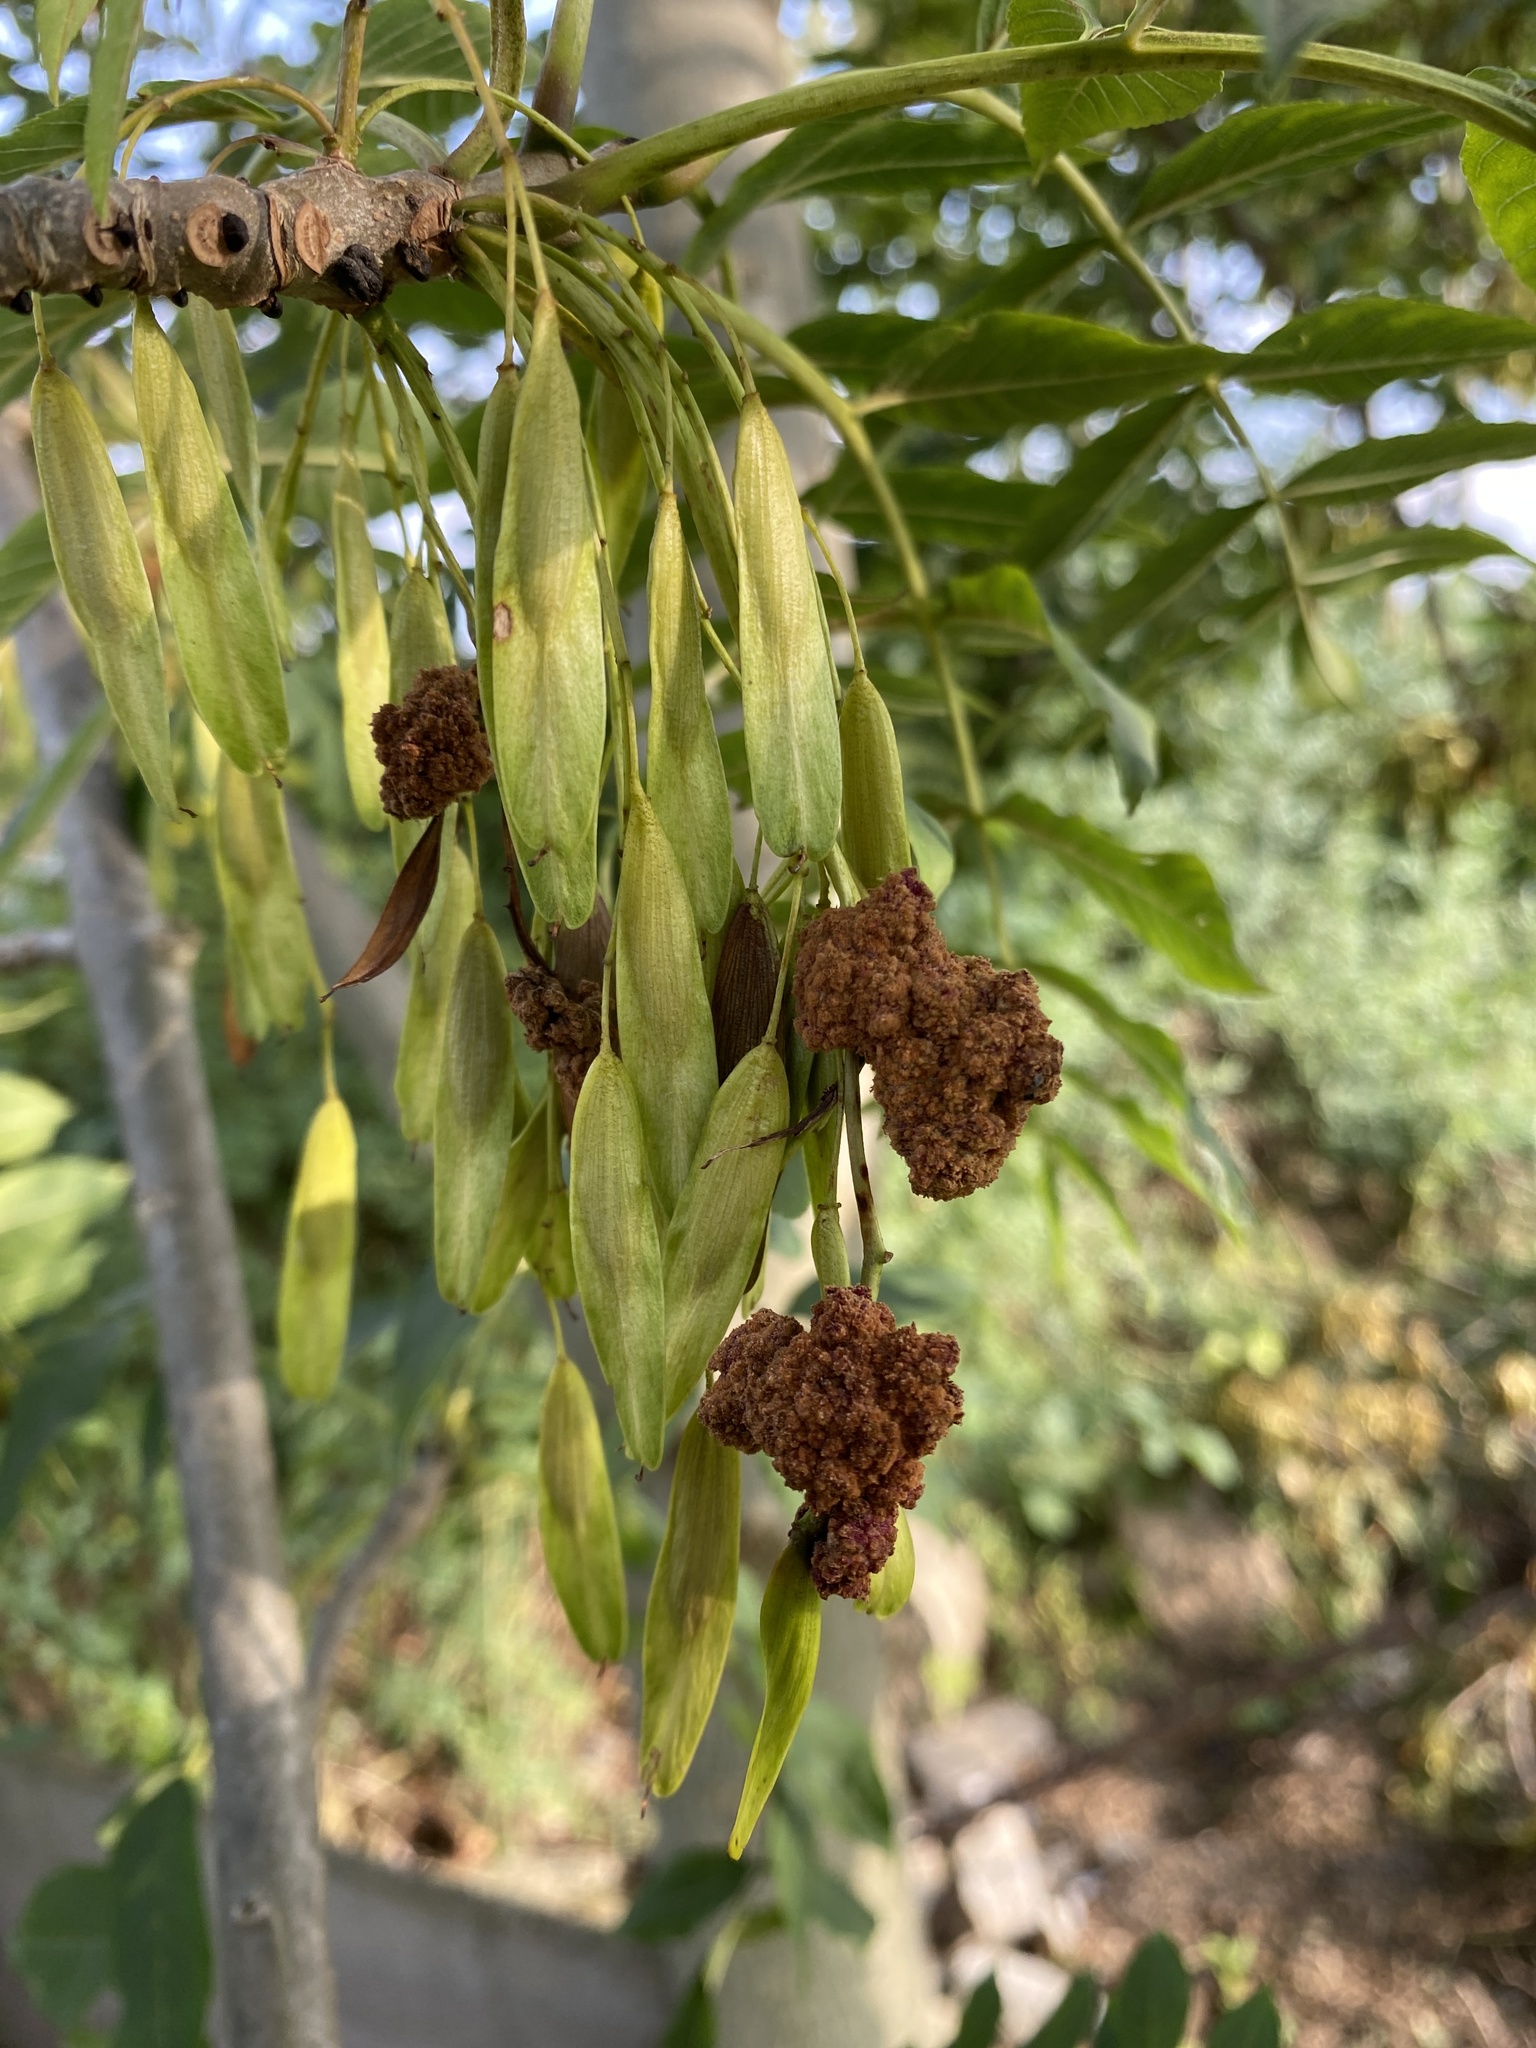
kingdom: Animalia
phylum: Arthropoda
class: Arachnida
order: Trombidiformes
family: Eriophyidae
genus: Aceria
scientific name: Aceria fraxinivora
